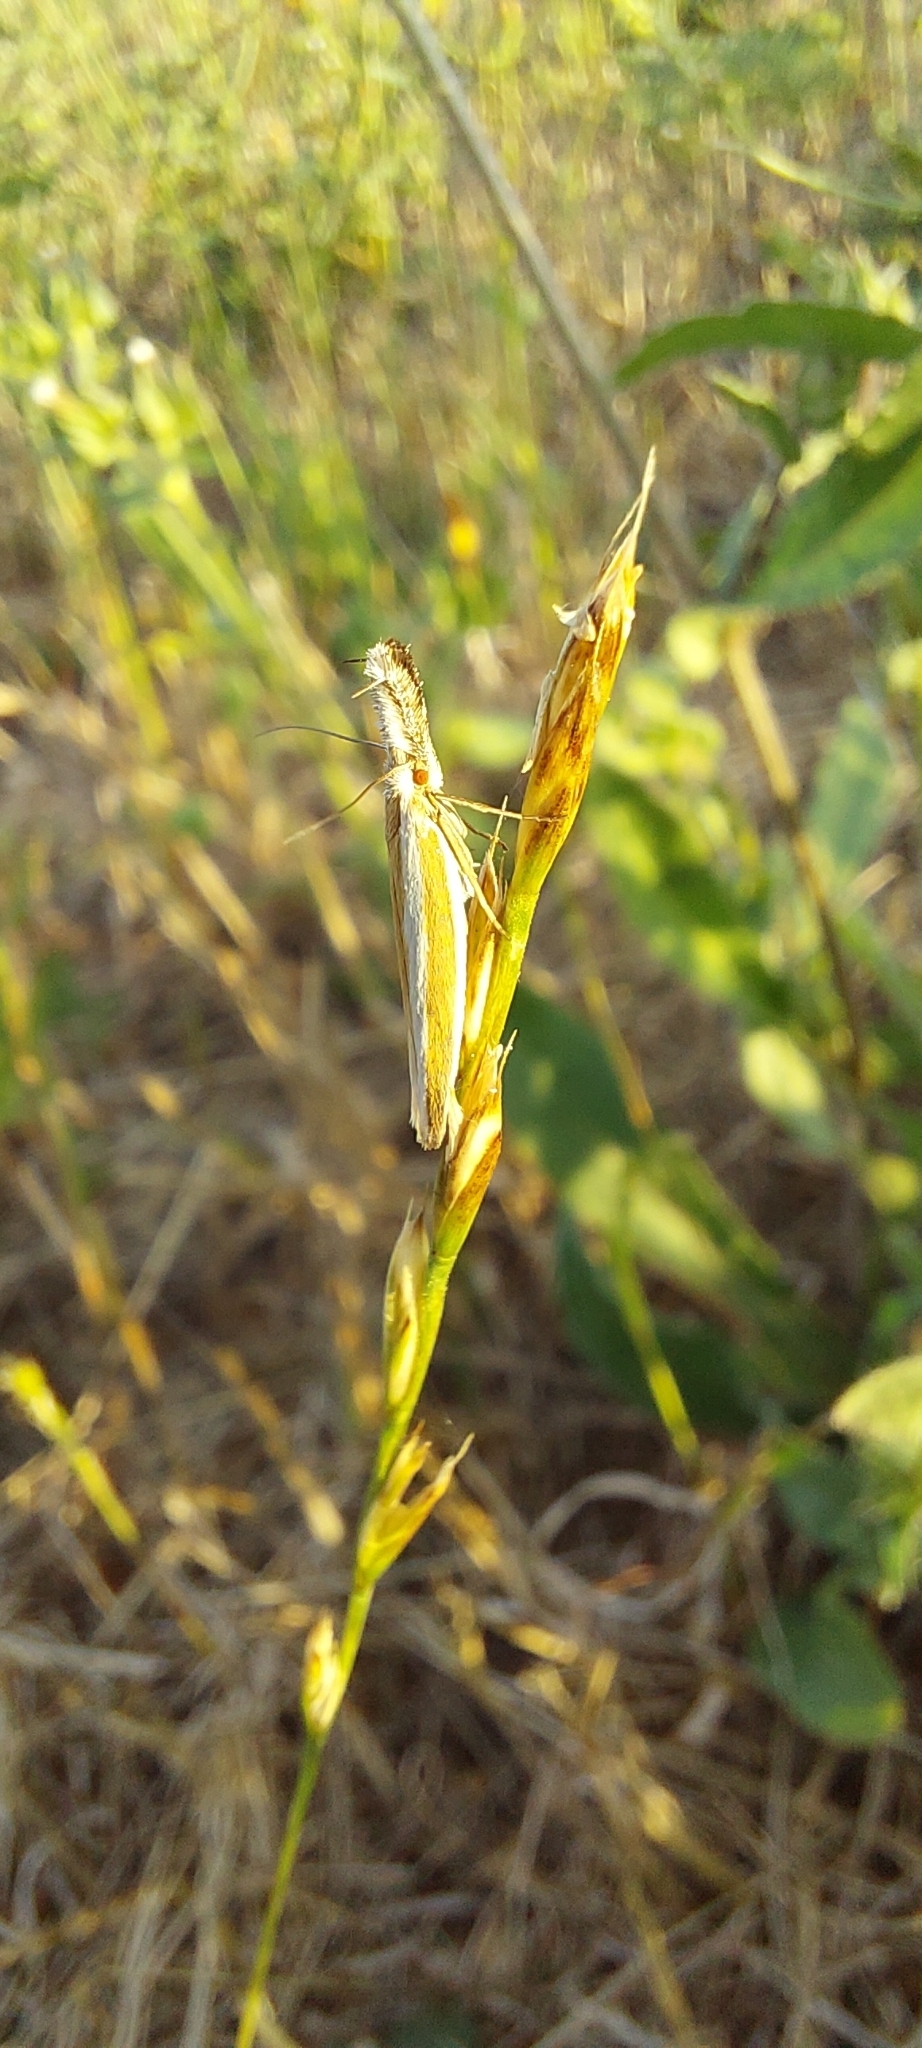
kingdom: Animalia
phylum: Arthropoda
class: Insecta
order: Lepidoptera
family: Oecophoridae
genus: Pleurota
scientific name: Pleurota aristella
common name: Southern streak
